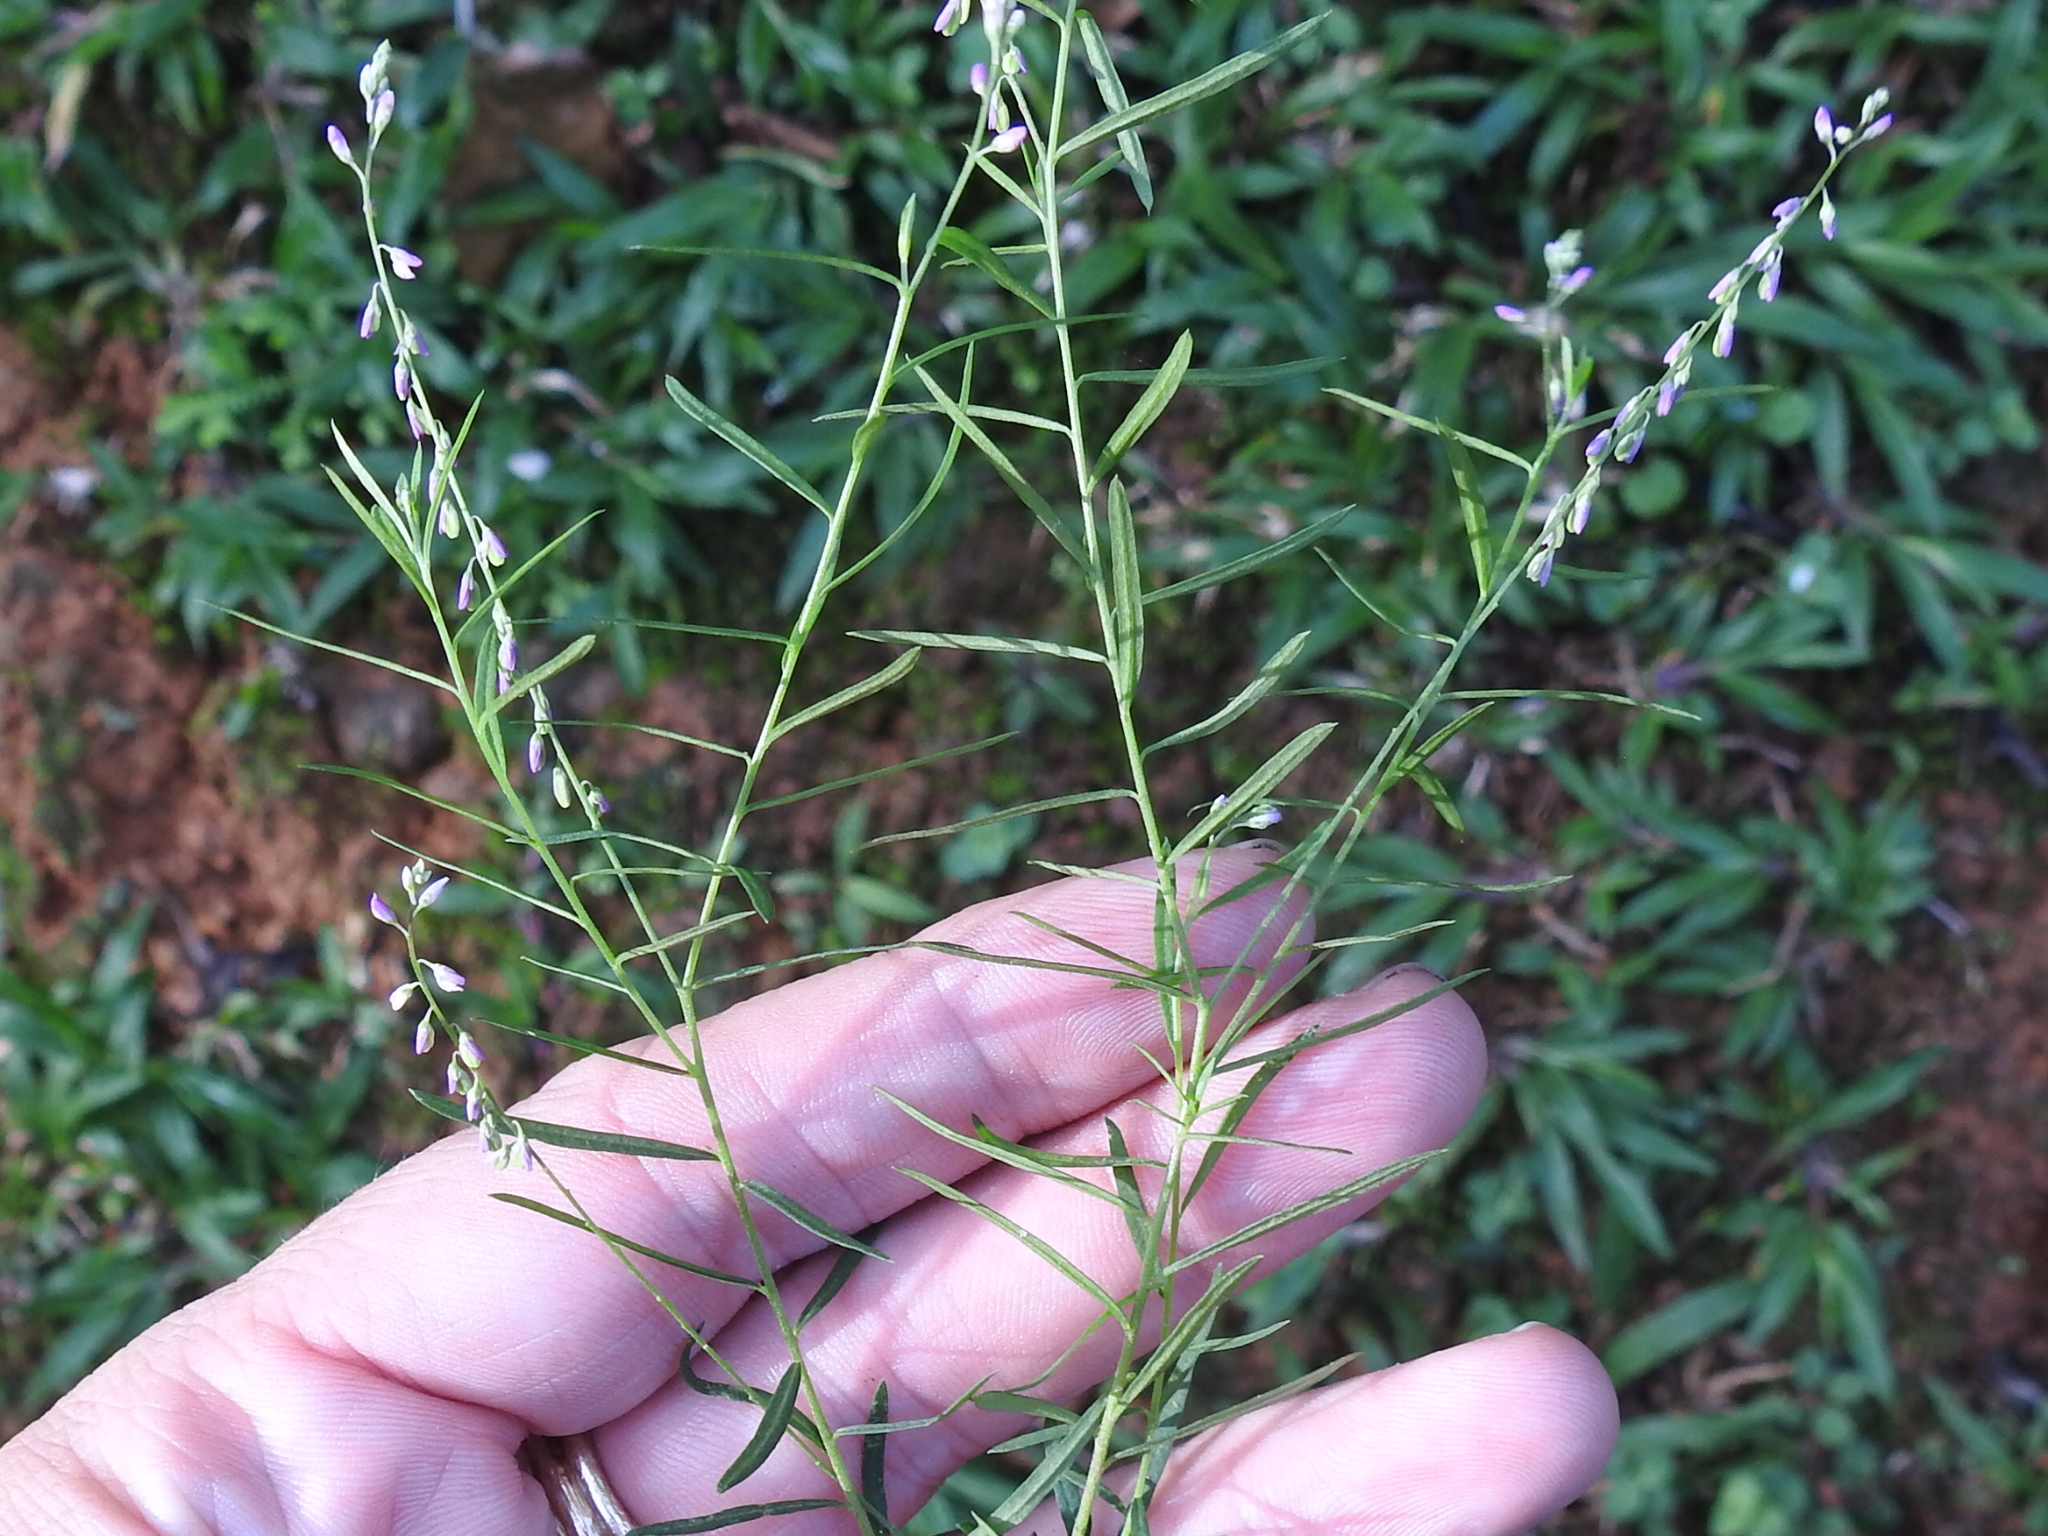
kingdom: Plantae
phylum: Tracheophyta
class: Magnoliopsida
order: Fabales
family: Polygalaceae
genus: Polygala
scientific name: Polygala paniculata
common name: Orosne
